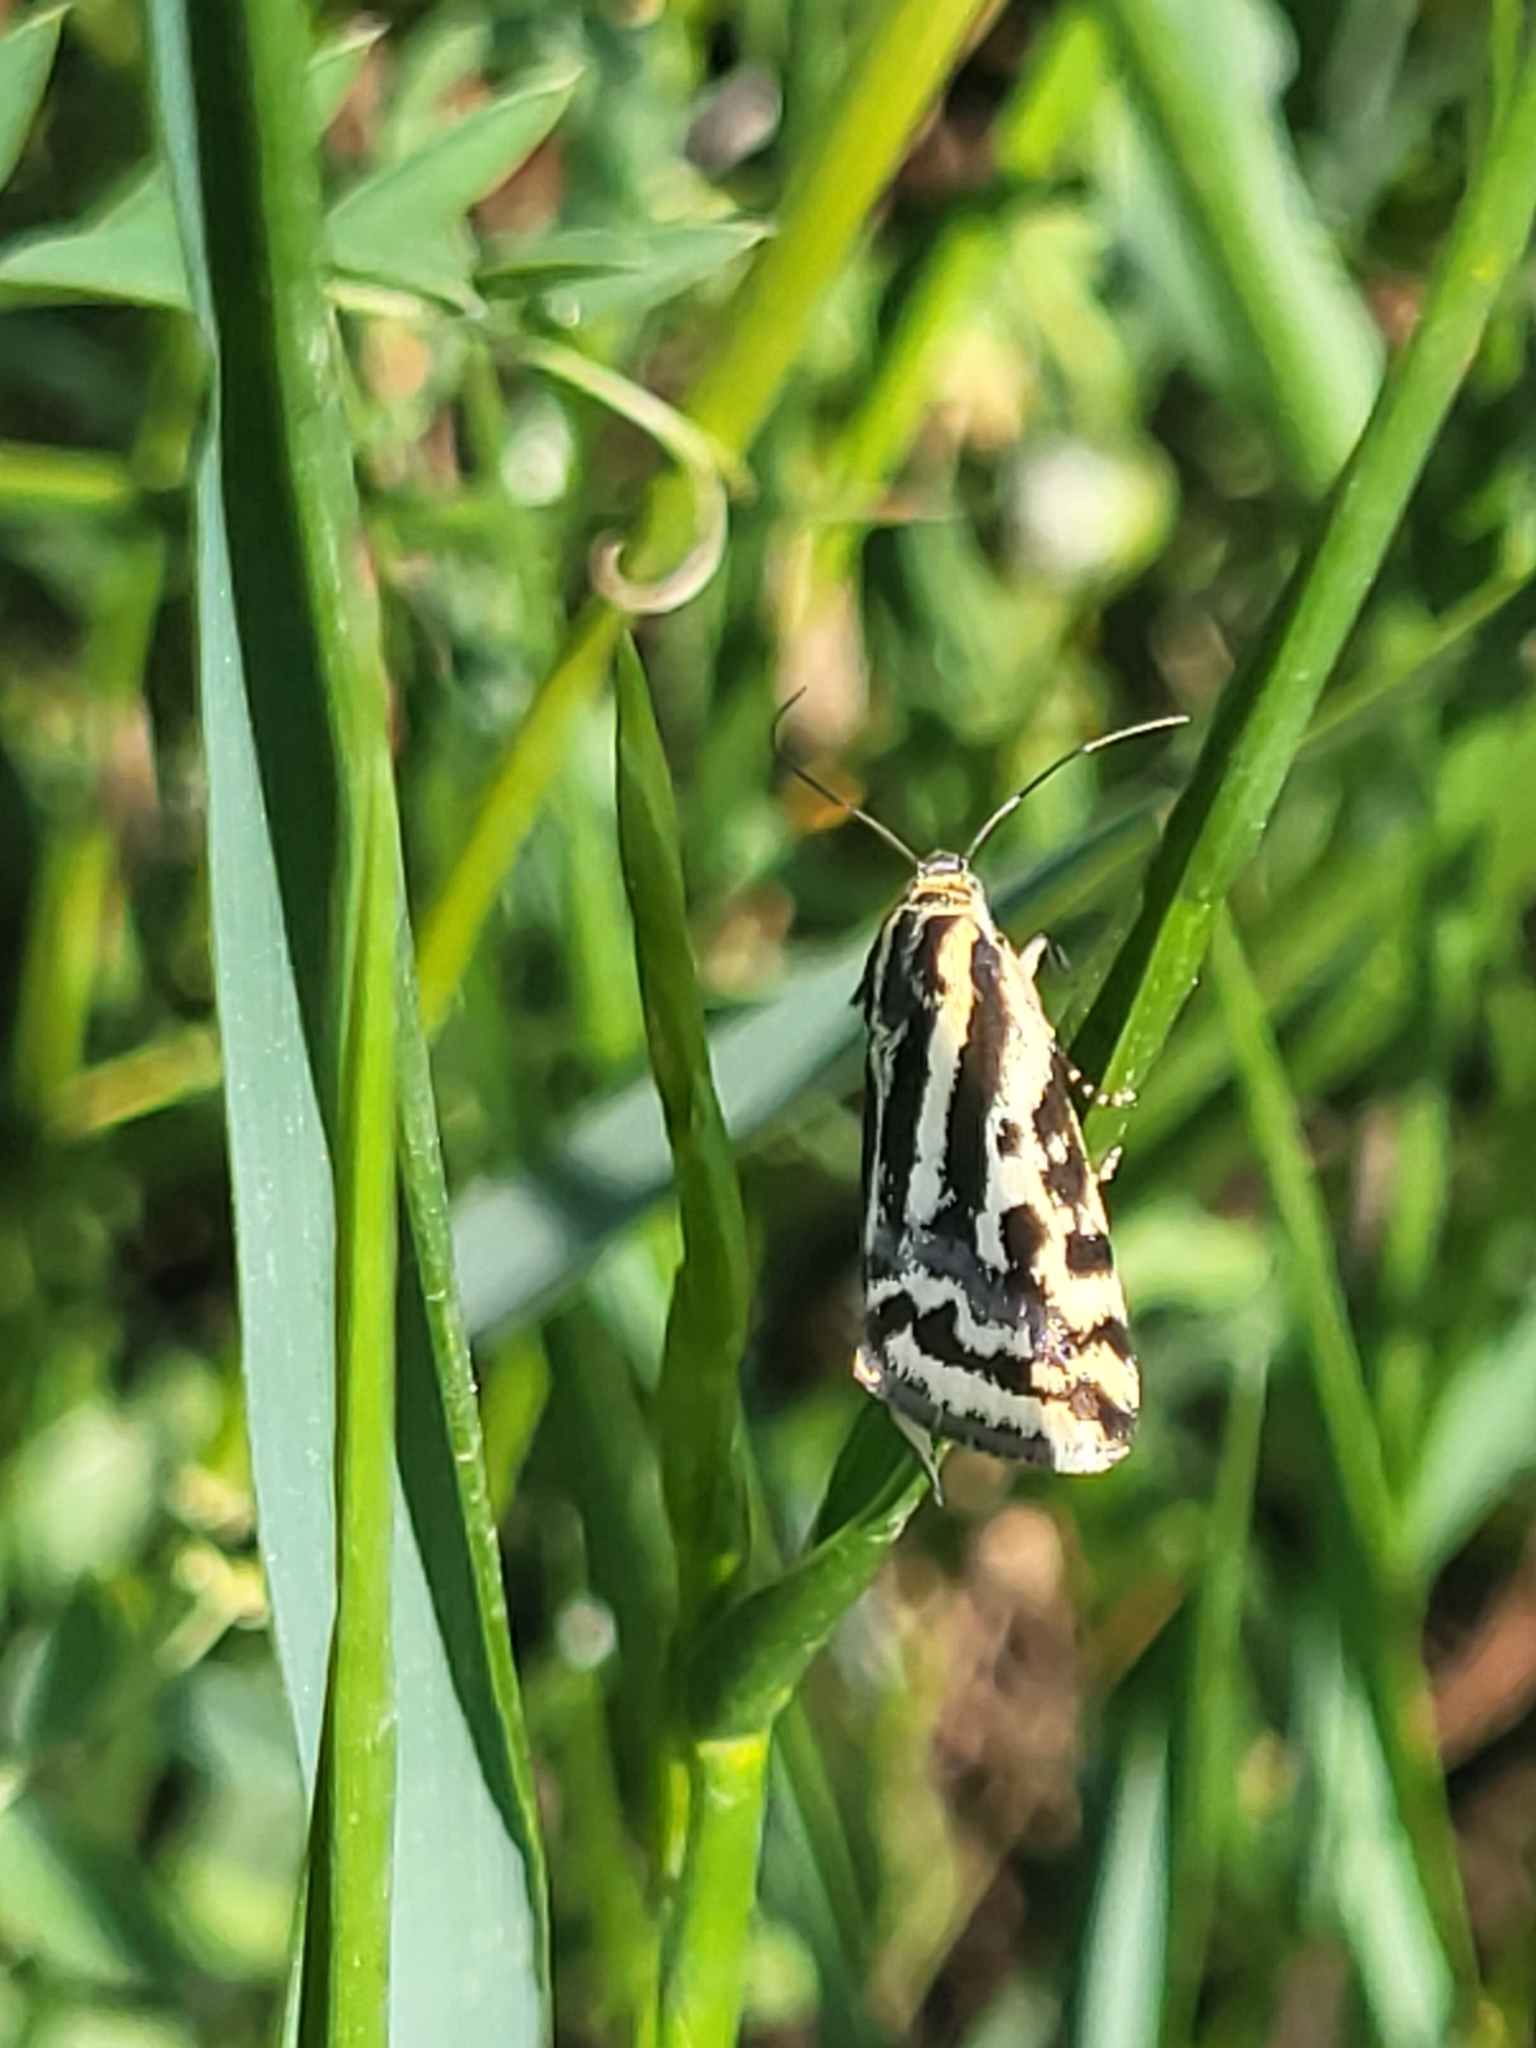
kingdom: Animalia
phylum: Arthropoda
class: Insecta
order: Lepidoptera
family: Noctuidae
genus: Acontia
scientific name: Acontia trabealis
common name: Spotted sulphur
